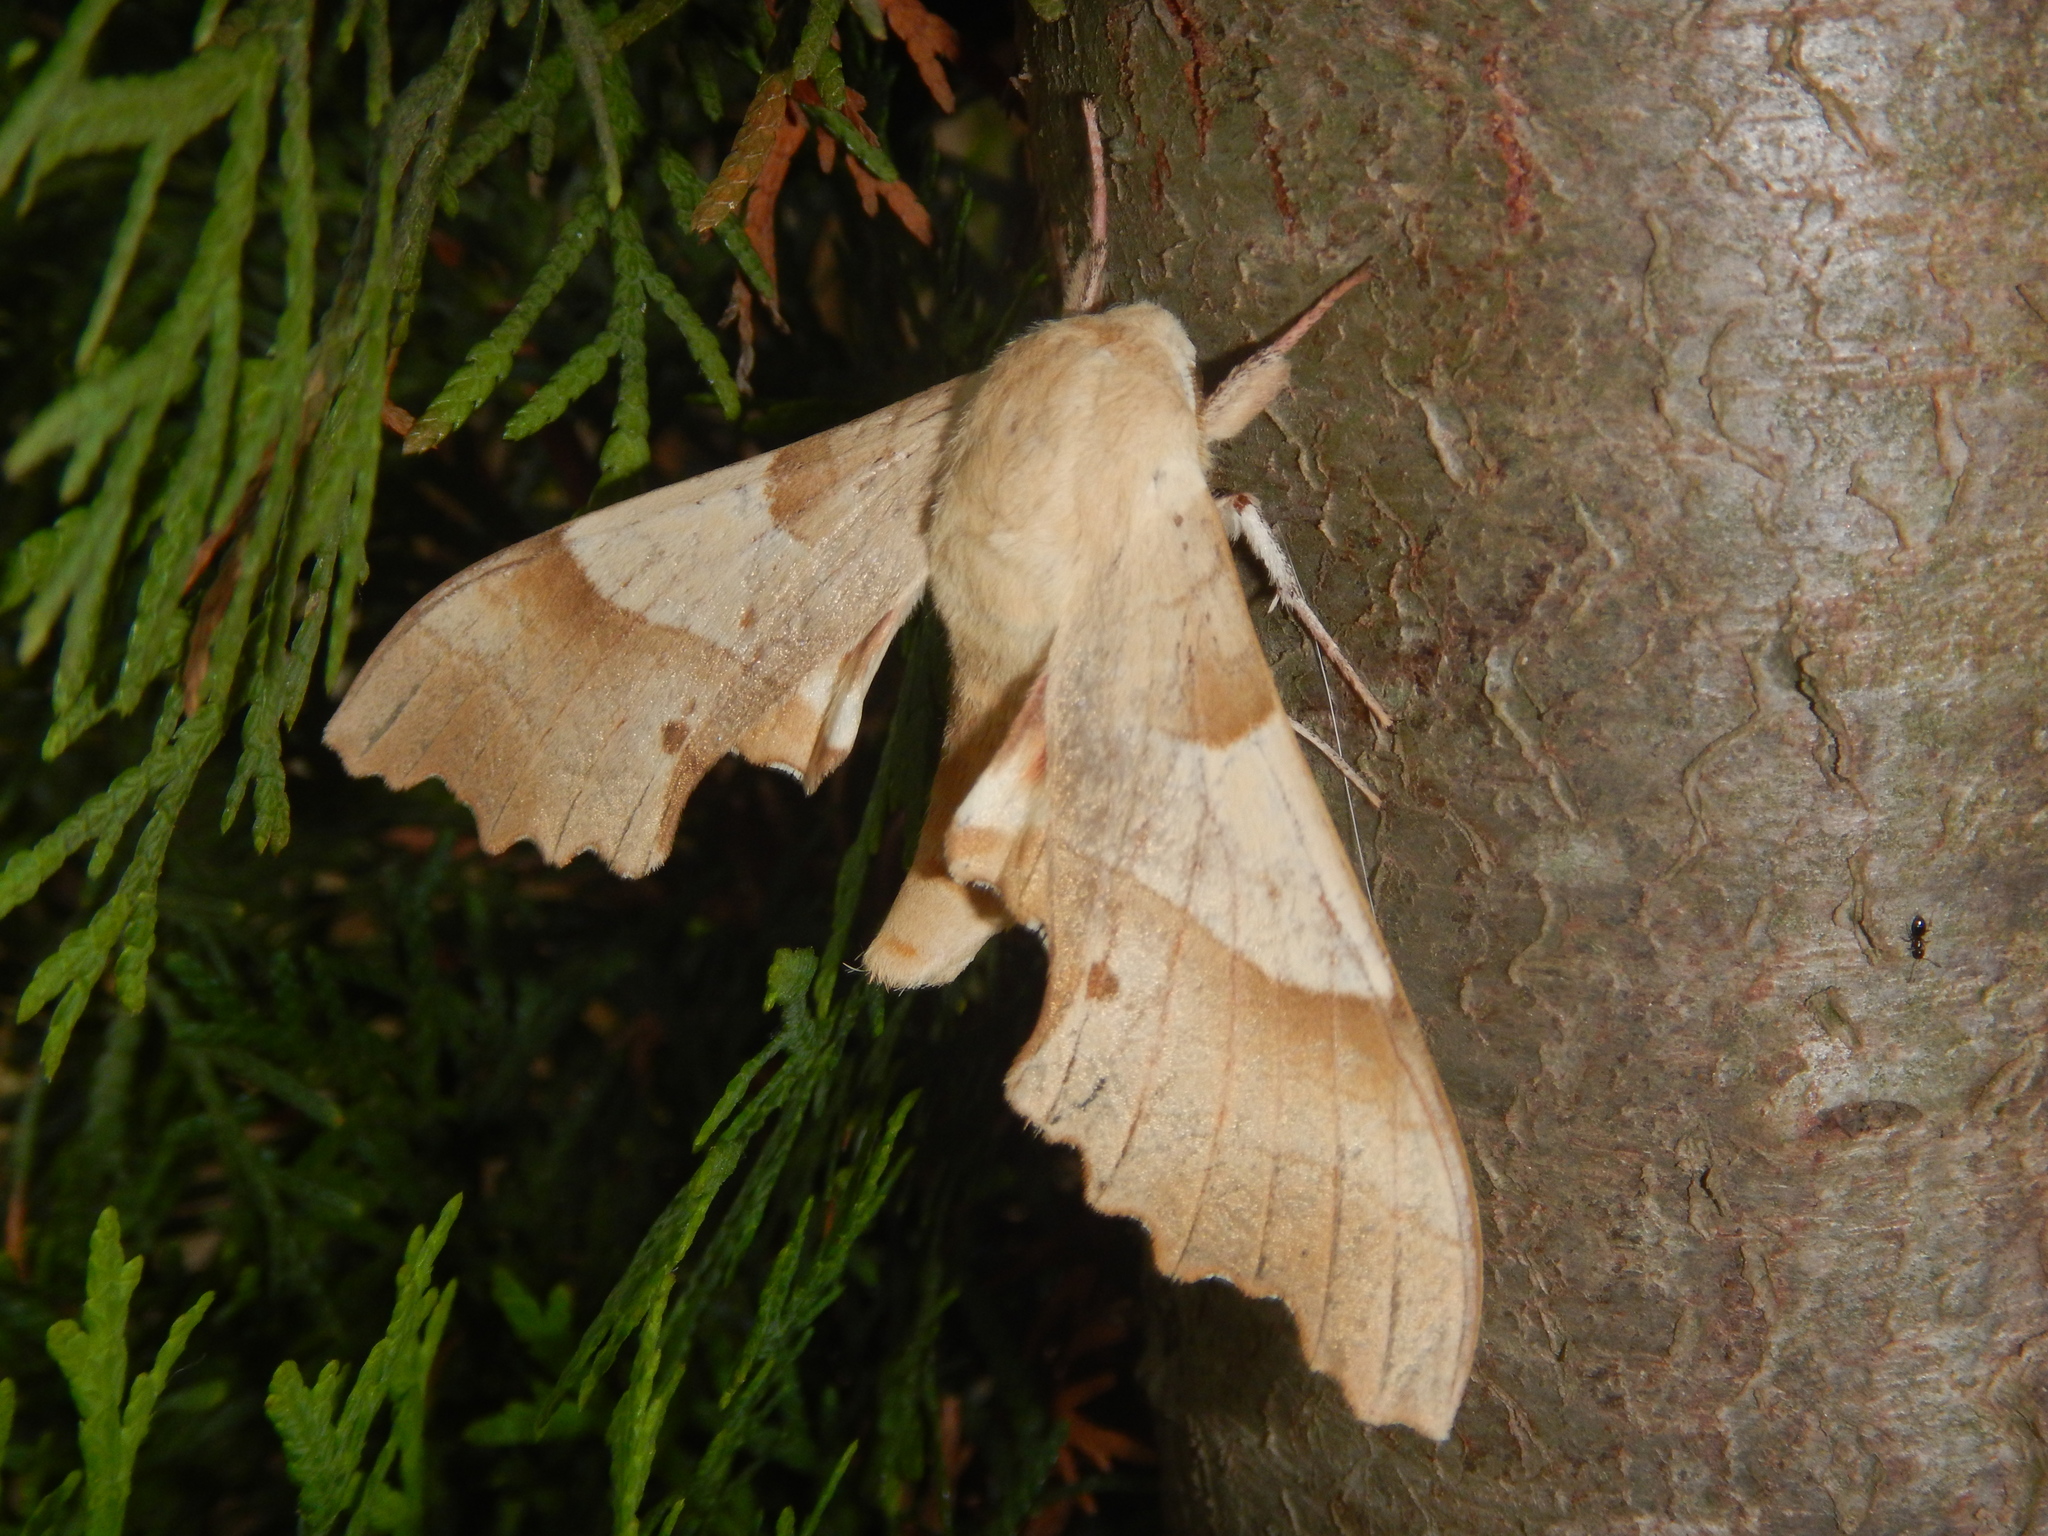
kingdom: Animalia
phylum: Arthropoda
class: Insecta
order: Lepidoptera
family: Sphingidae
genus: Marumba
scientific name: Marumba quercus
